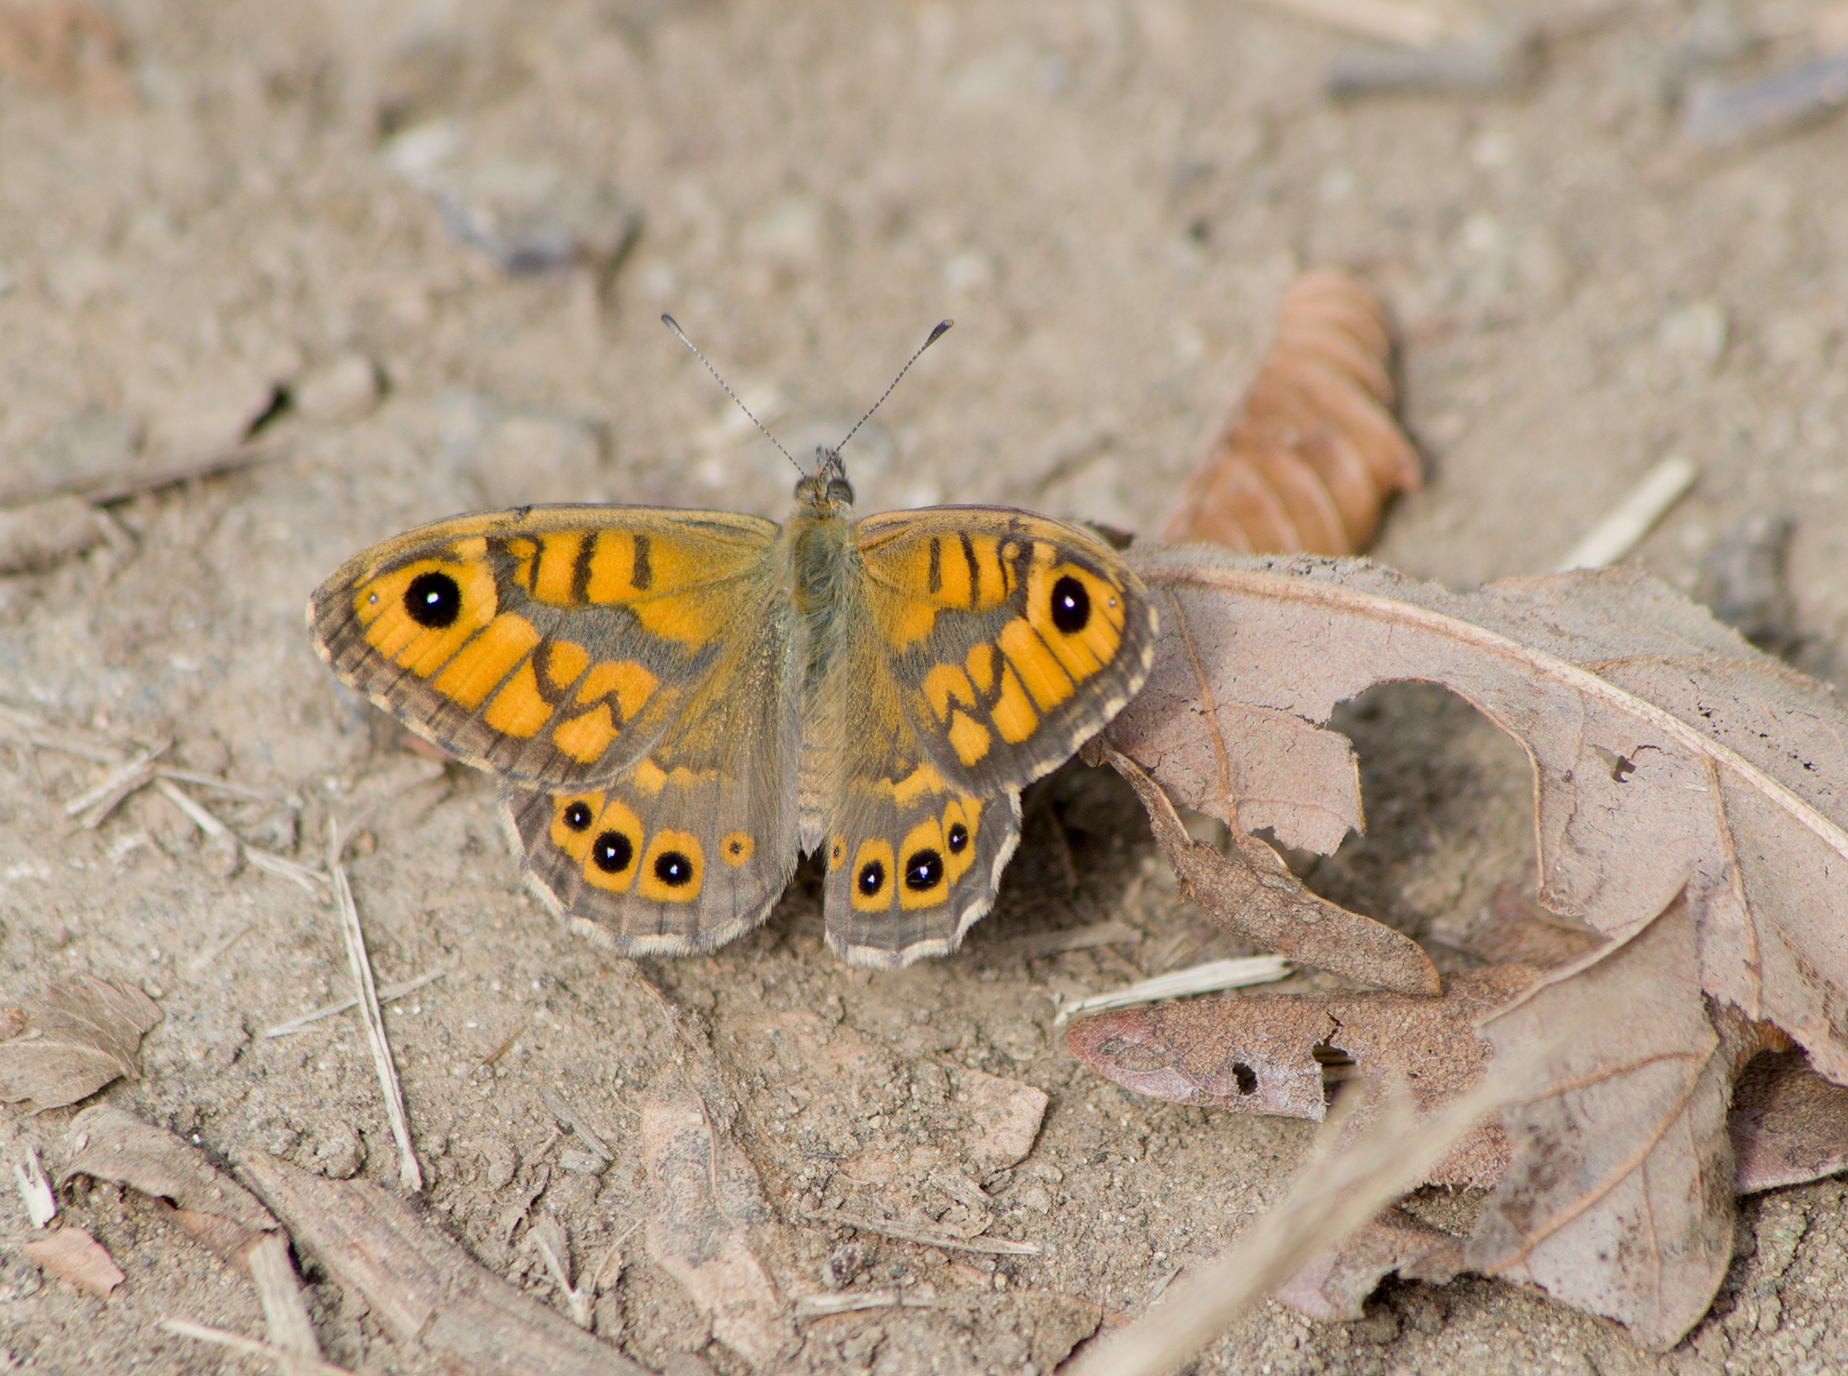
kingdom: Animalia
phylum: Arthropoda
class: Insecta
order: Lepidoptera
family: Nymphalidae
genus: Pararge
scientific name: Pararge Lasiommata megera
